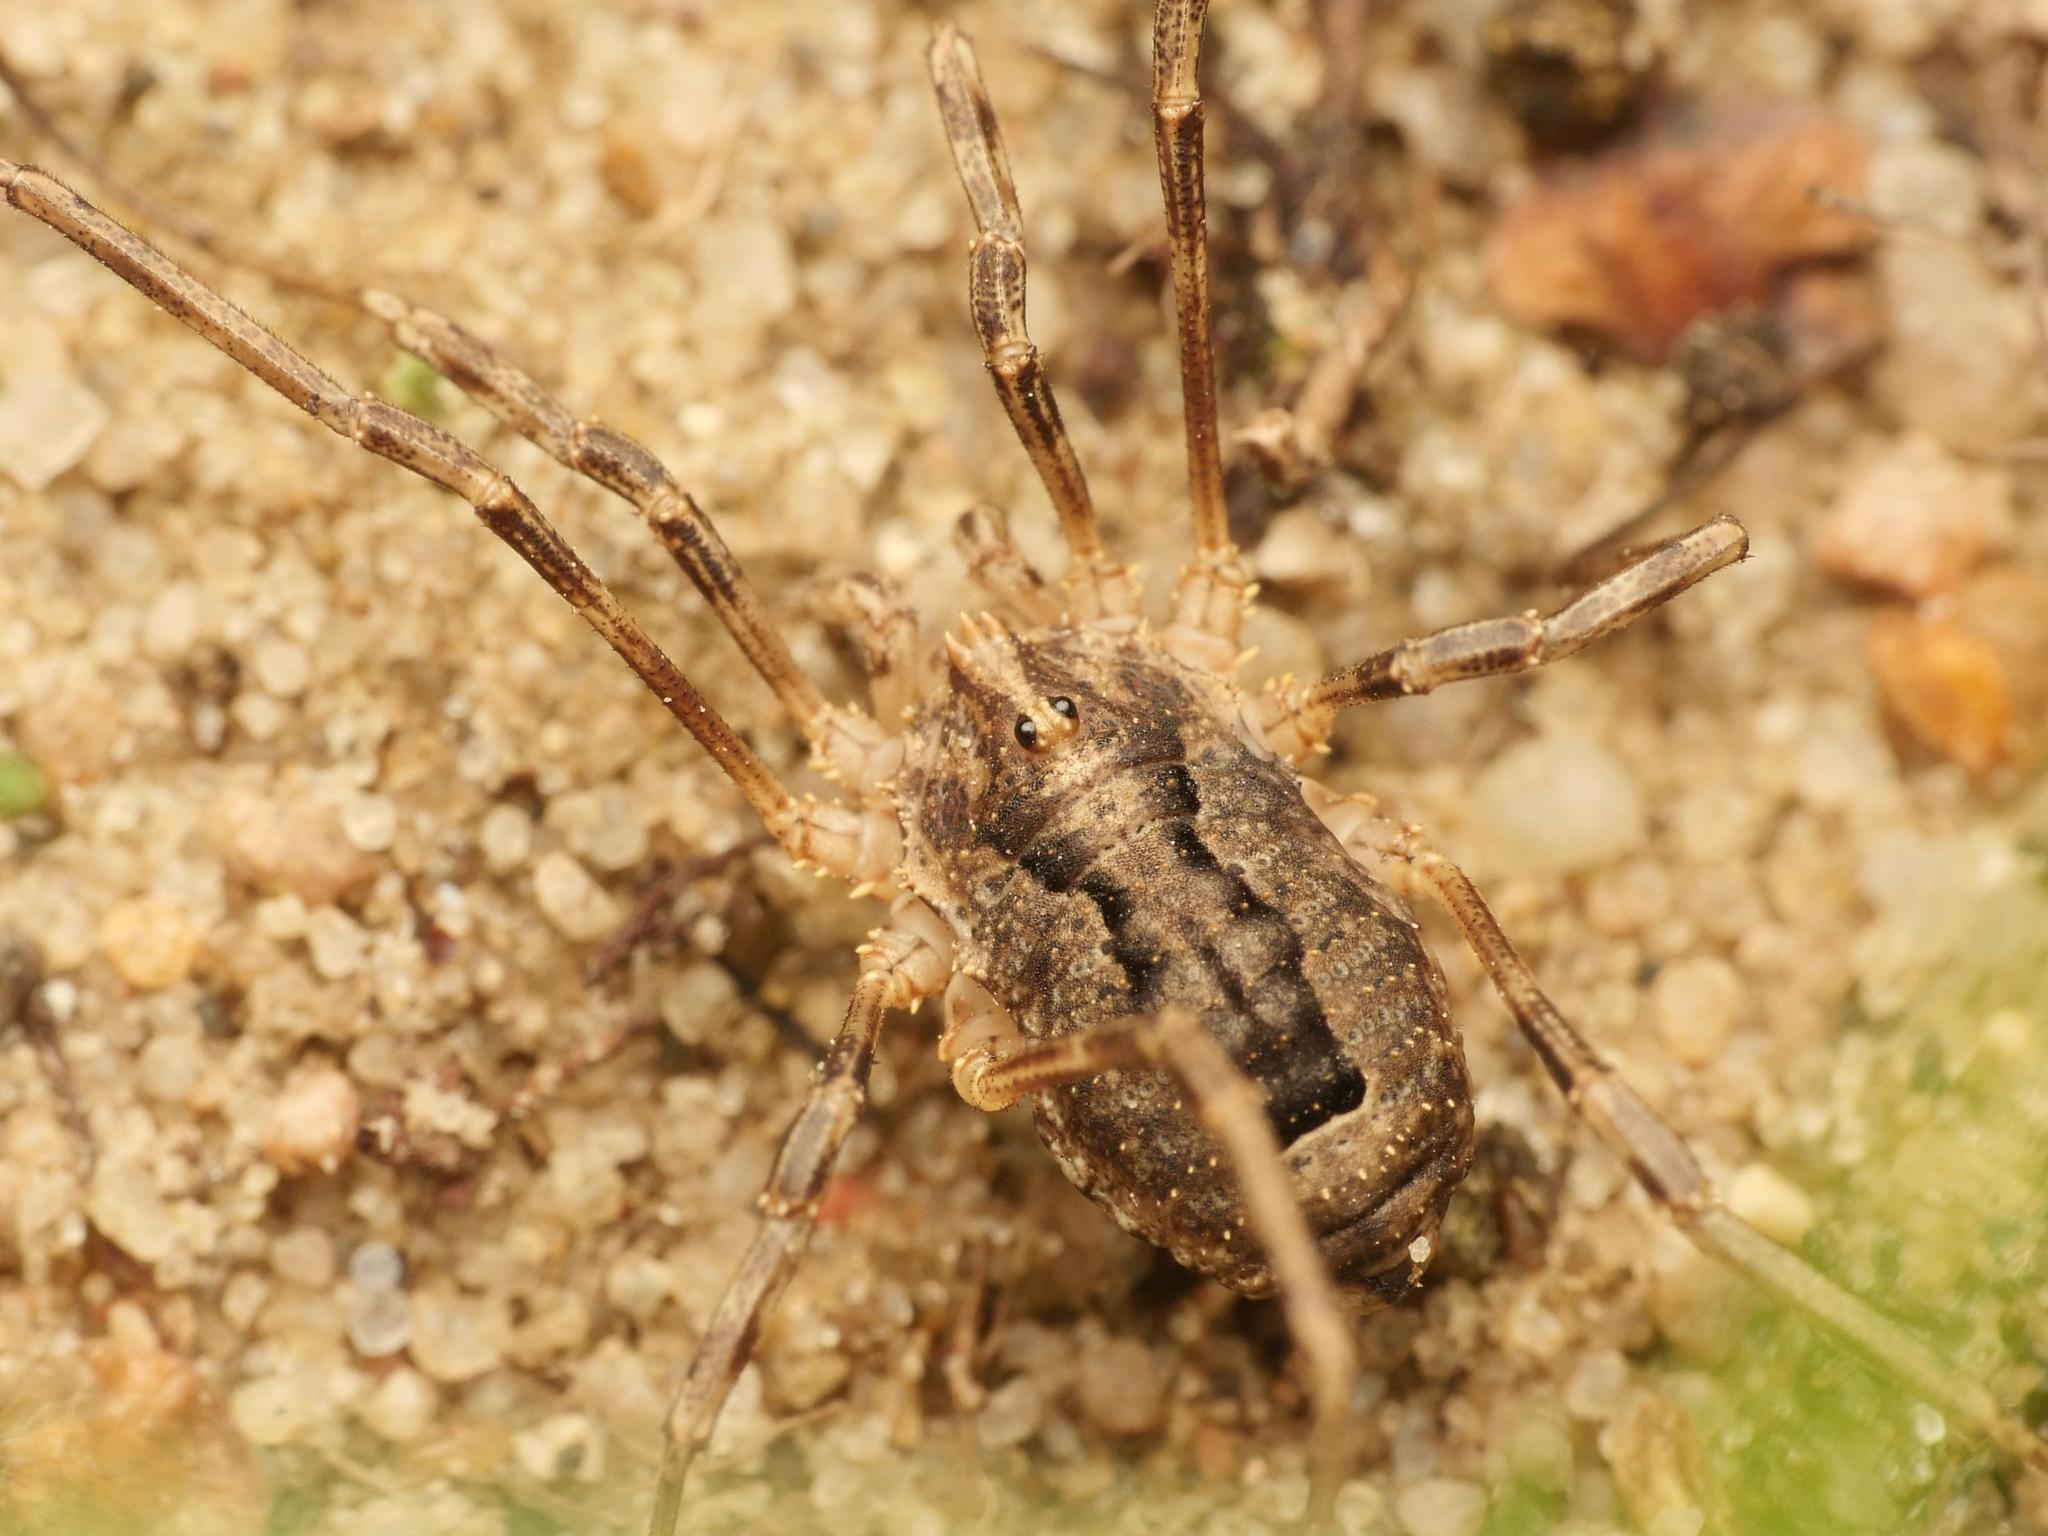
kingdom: Animalia
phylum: Arthropoda
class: Arachnida
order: Opiliones
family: Phalangiidae
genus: Odiellus
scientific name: Odiellus spinosus
